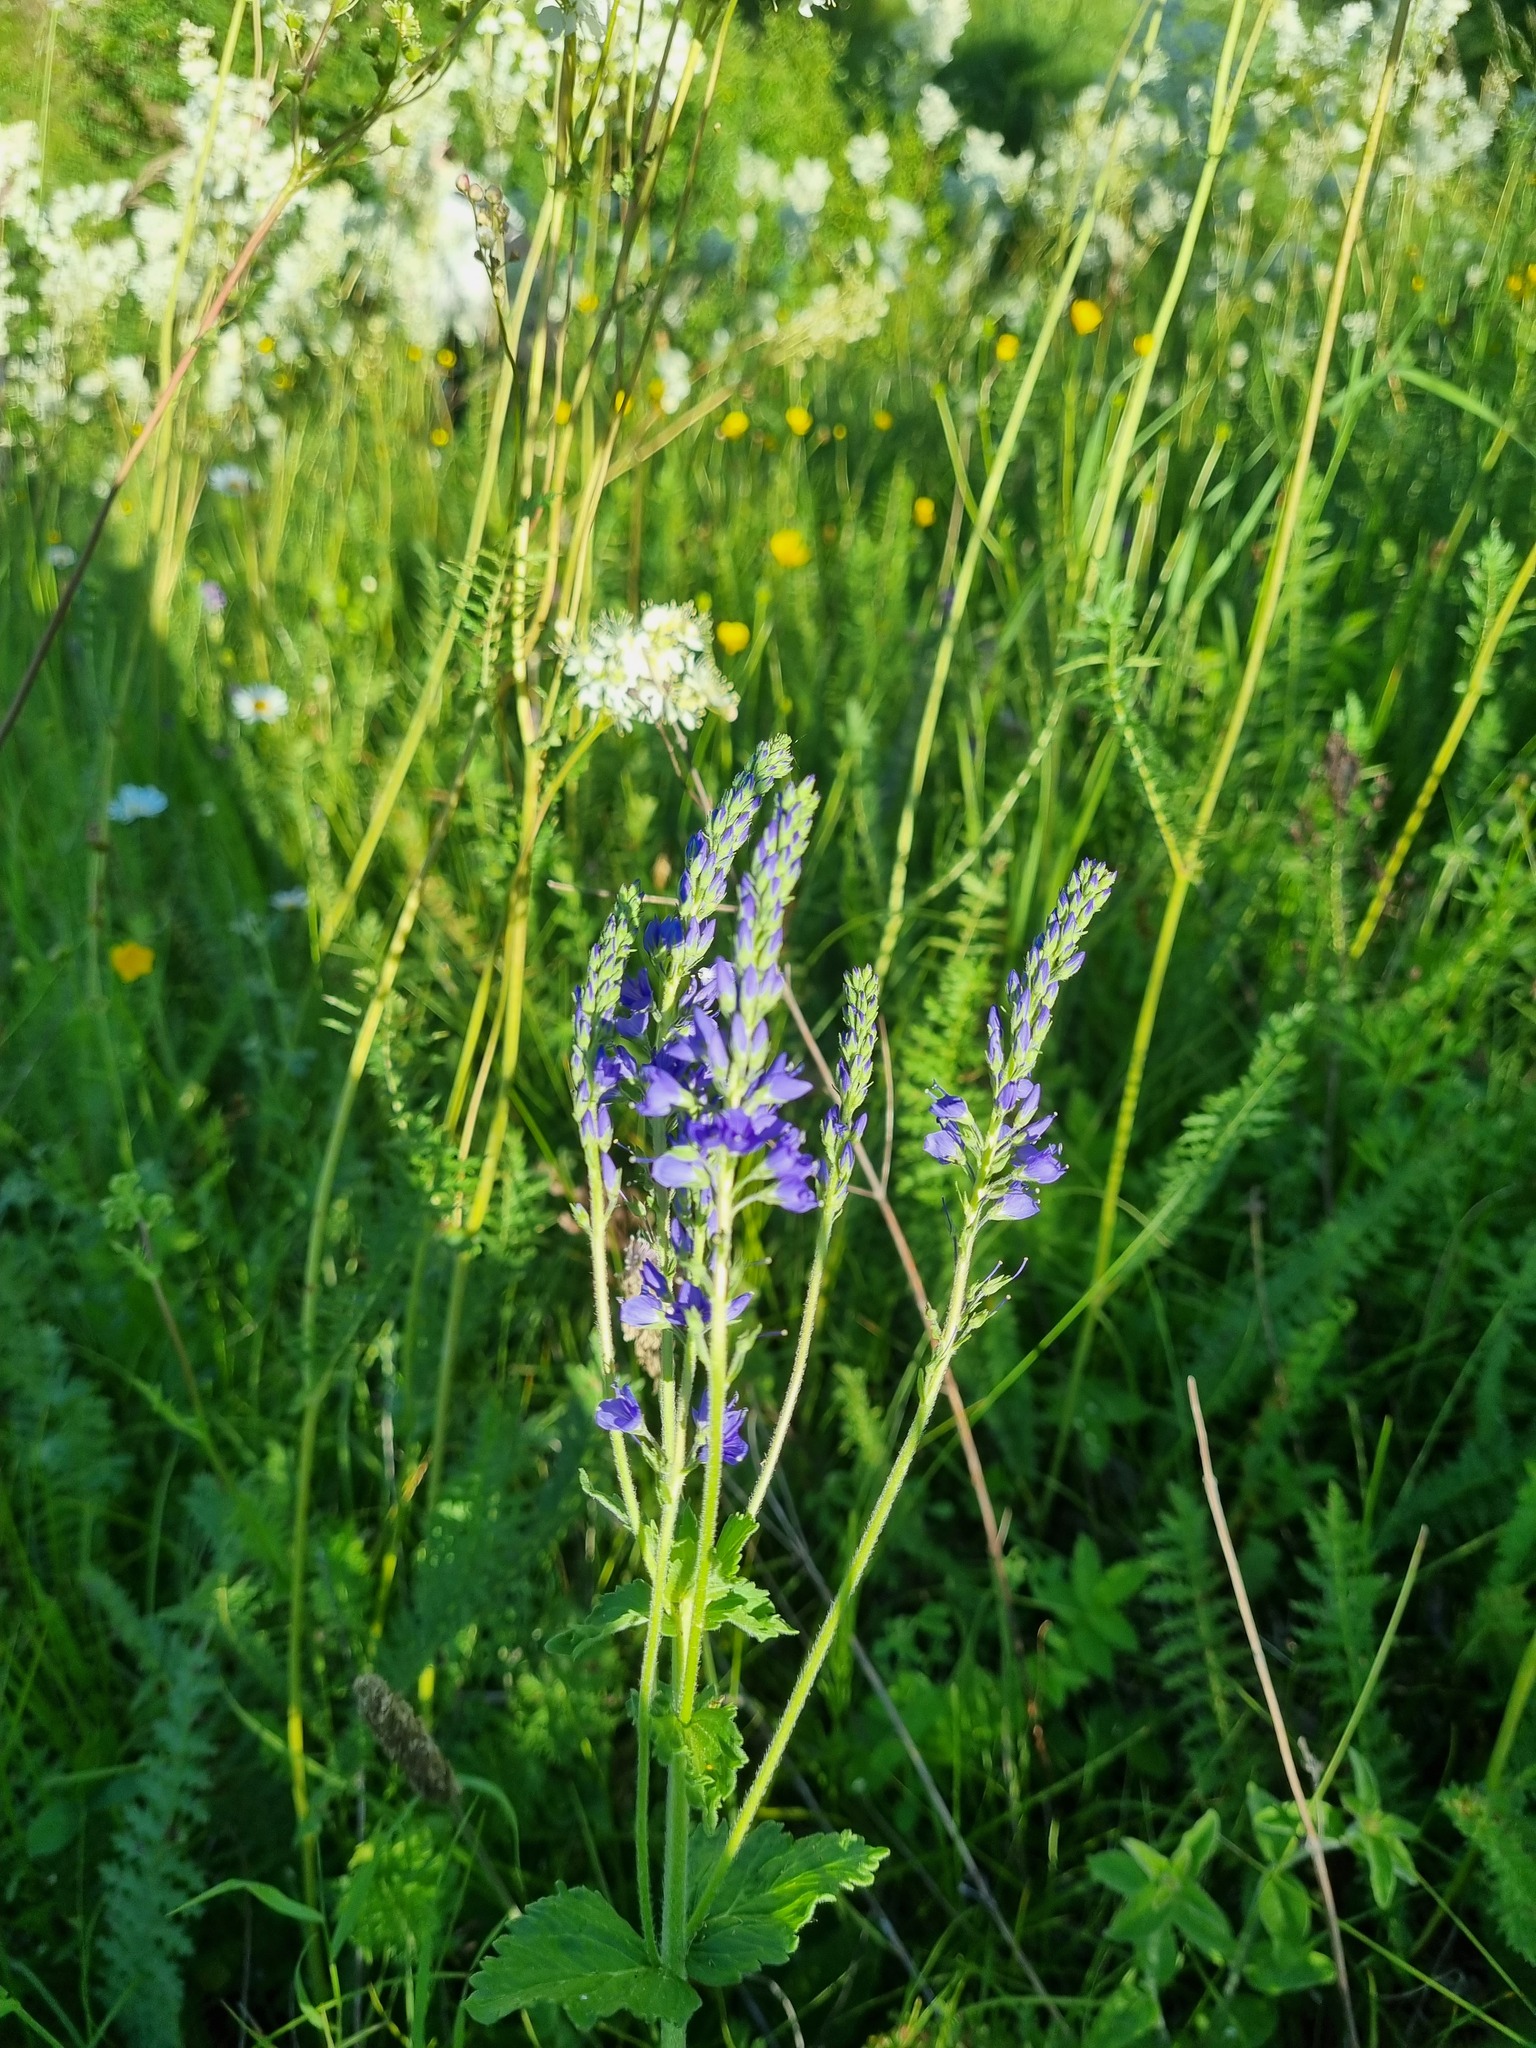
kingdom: Plantae
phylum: Tracheophyta
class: Magnoliopsida
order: Lamiales
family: Plantaginaceae
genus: Veronica
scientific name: Veronica teucrium
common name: Large speedwell
